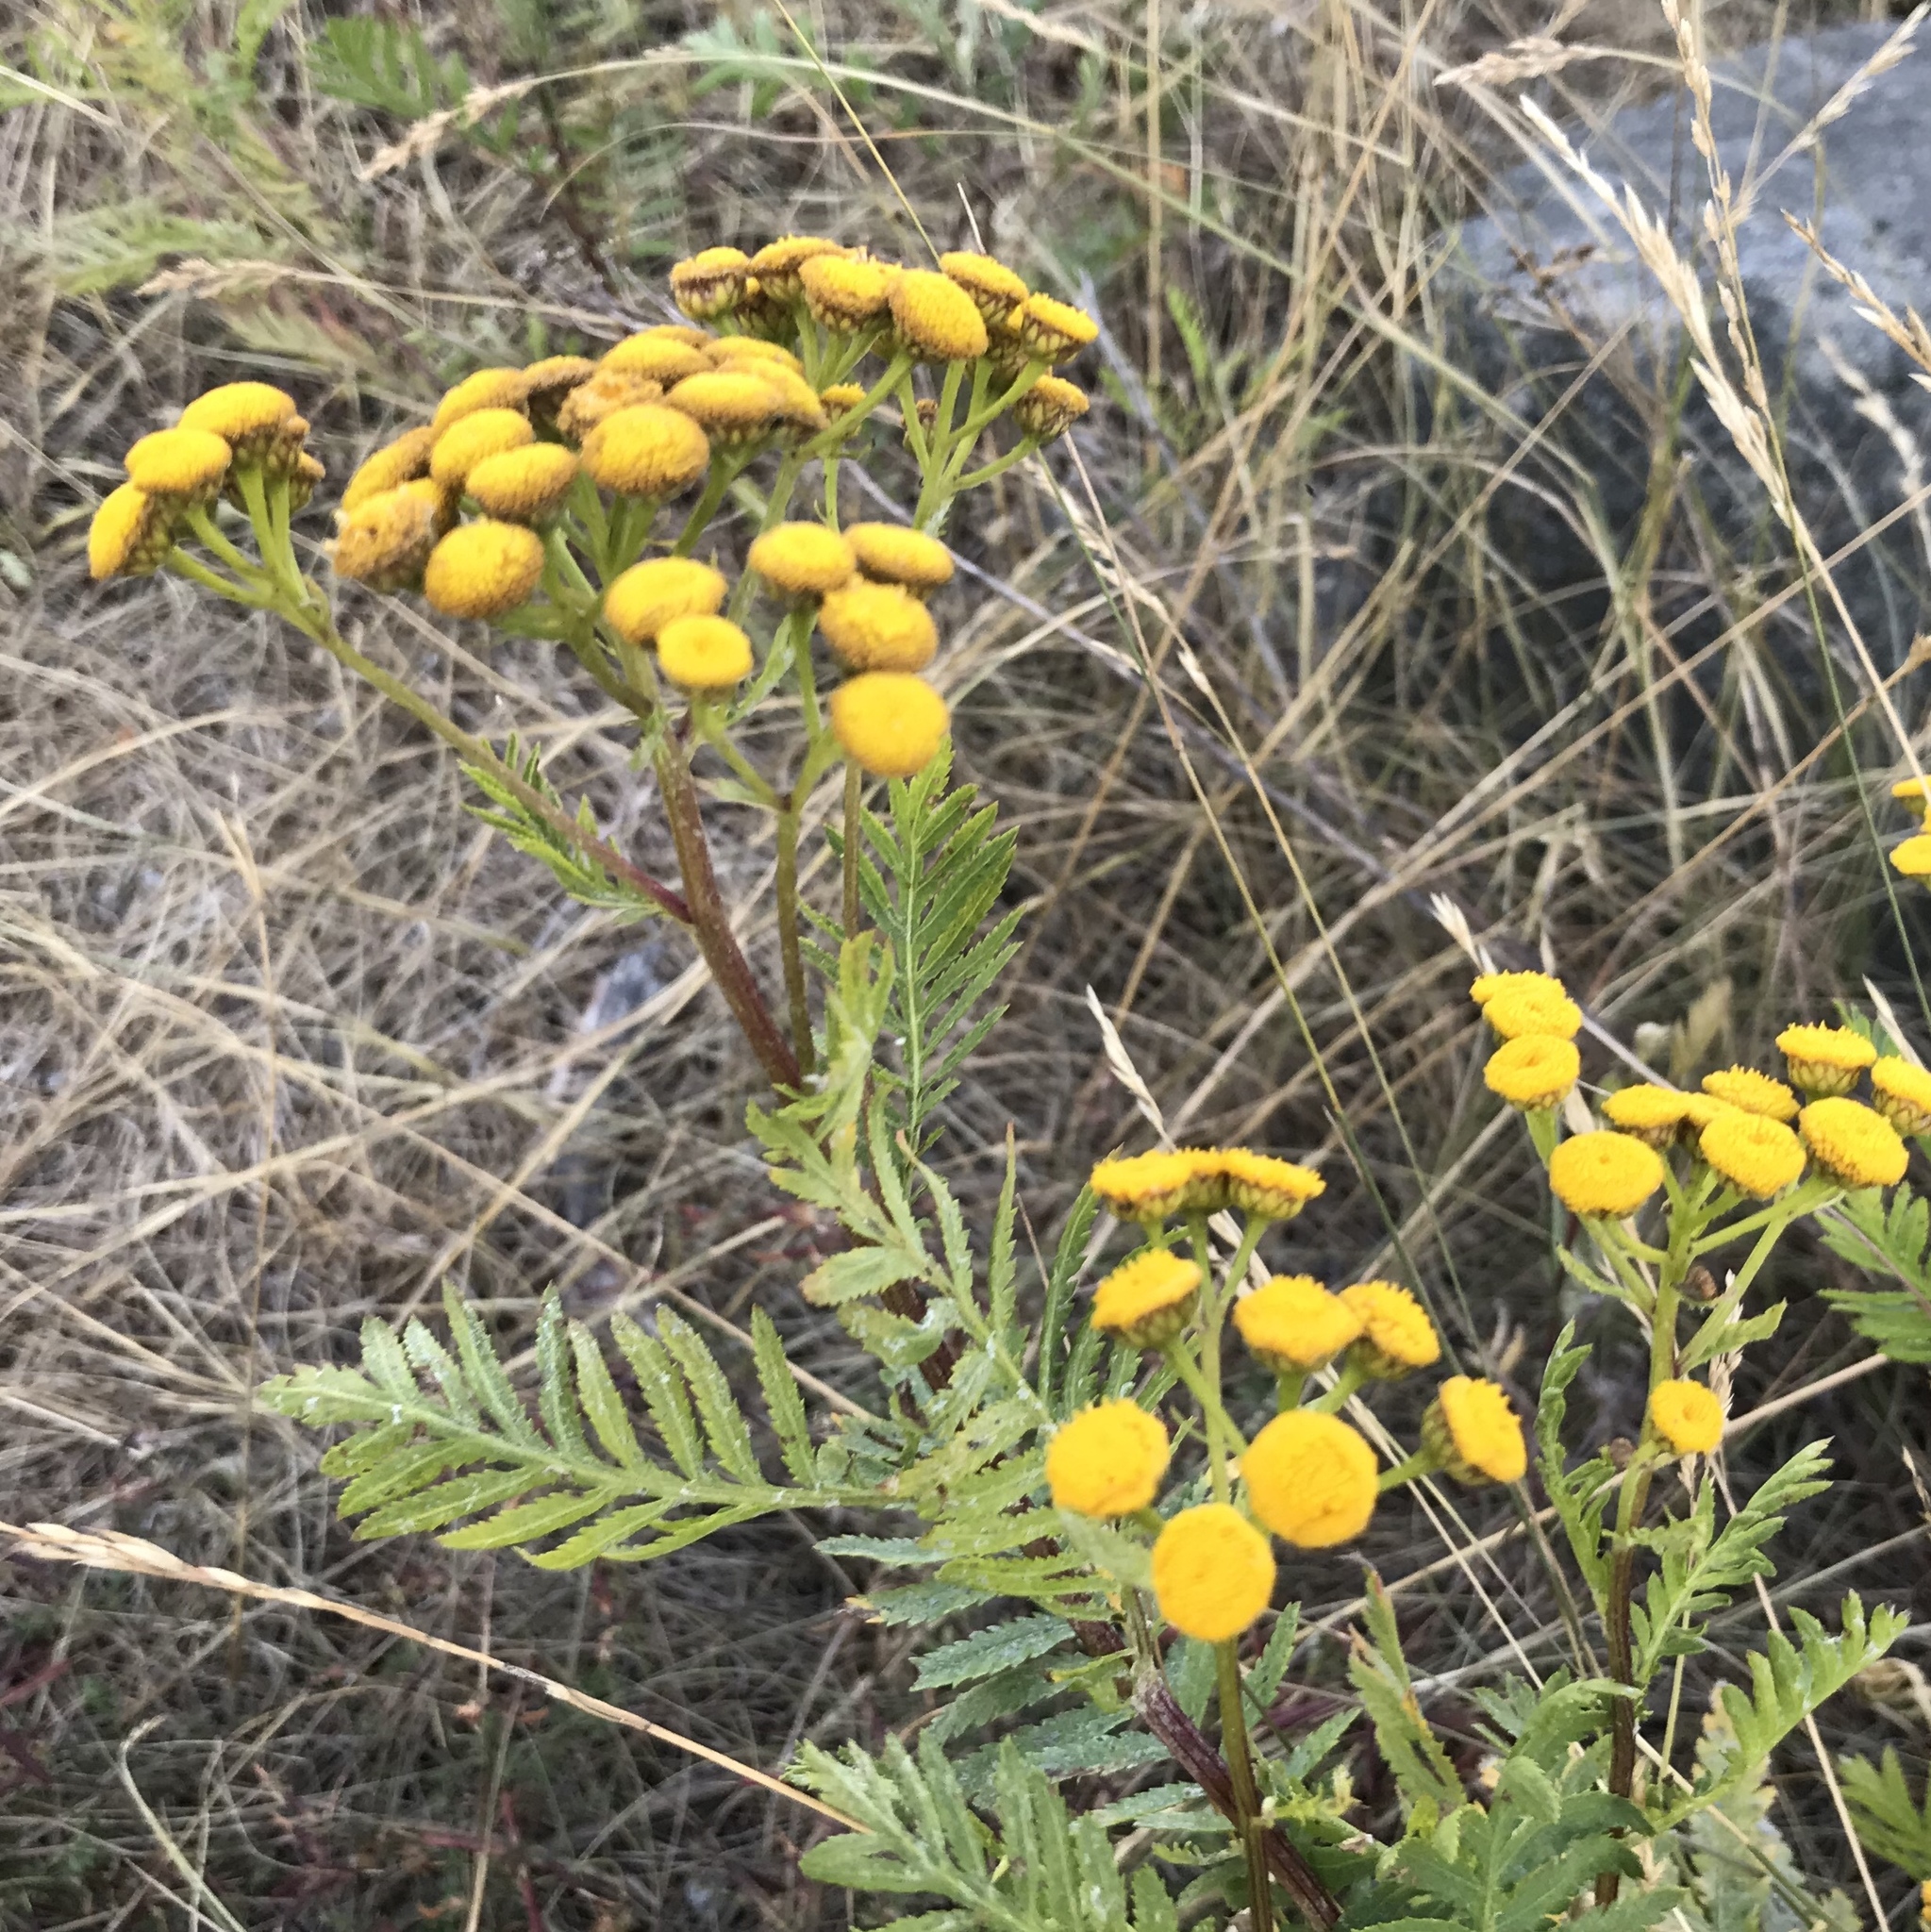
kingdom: Plantae
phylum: Tracheophyta
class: Magnoliopsida
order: Asterales
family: Asteraceae
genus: Tanacetum
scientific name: Tanacetum vulgare
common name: Common tansy
